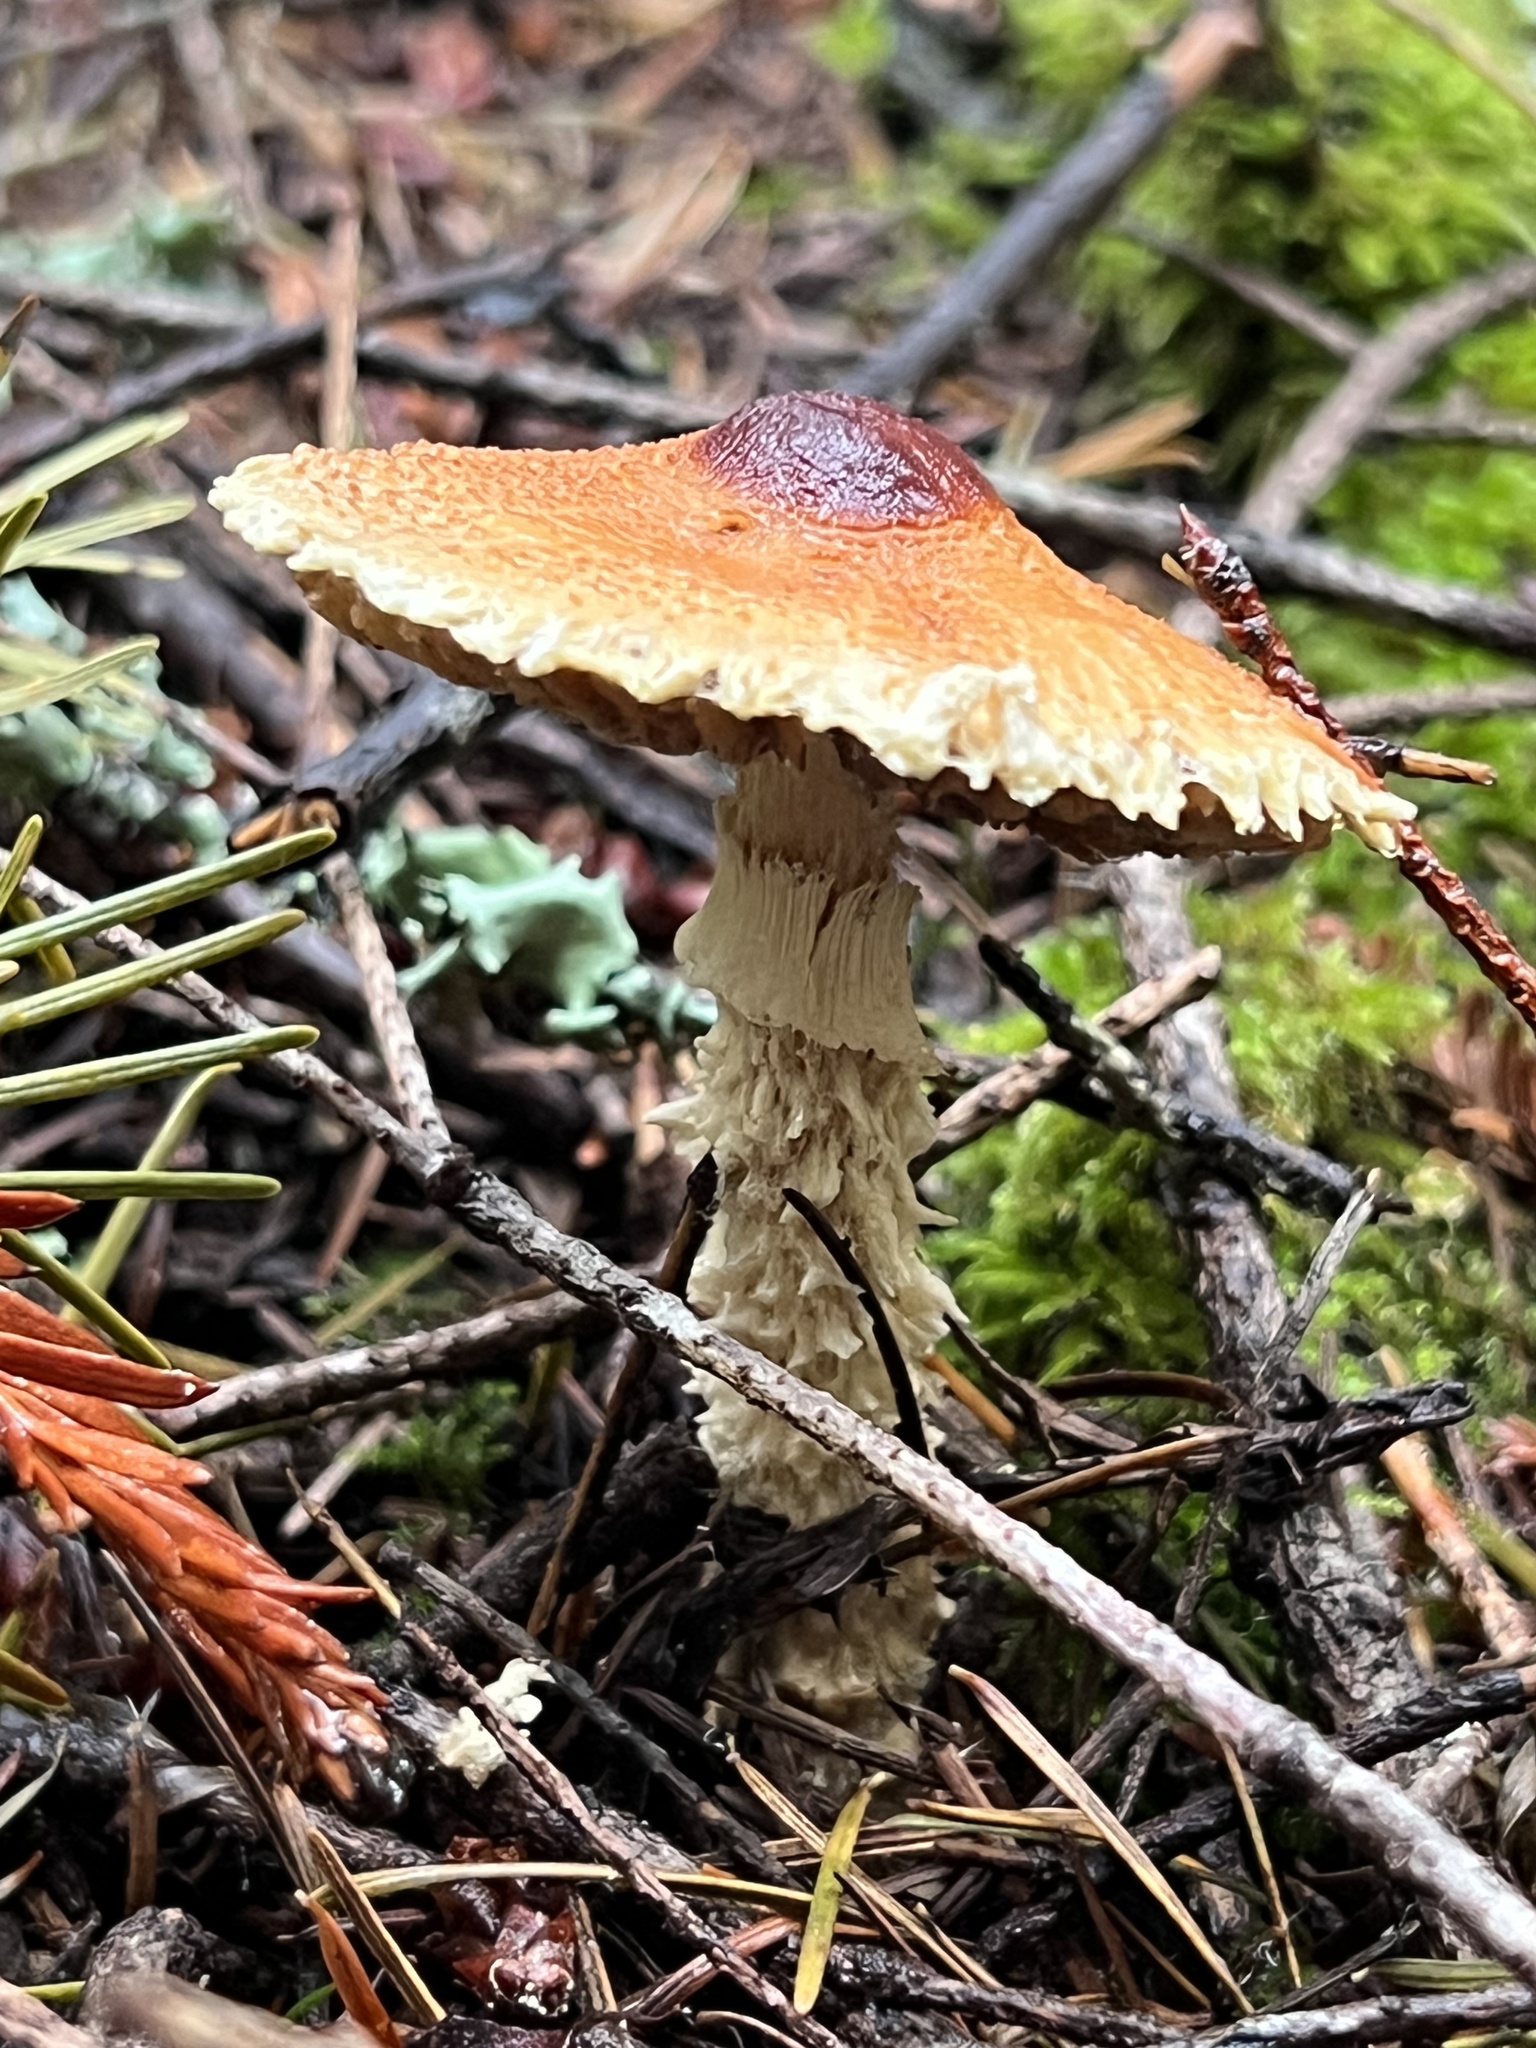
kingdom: Fungi
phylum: Basidiomycota
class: Agaricomycetes
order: Agaricales
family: Agaricaceae
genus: Lepiota
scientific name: Lepiota magnispora
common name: Yellowfoot dapperling
